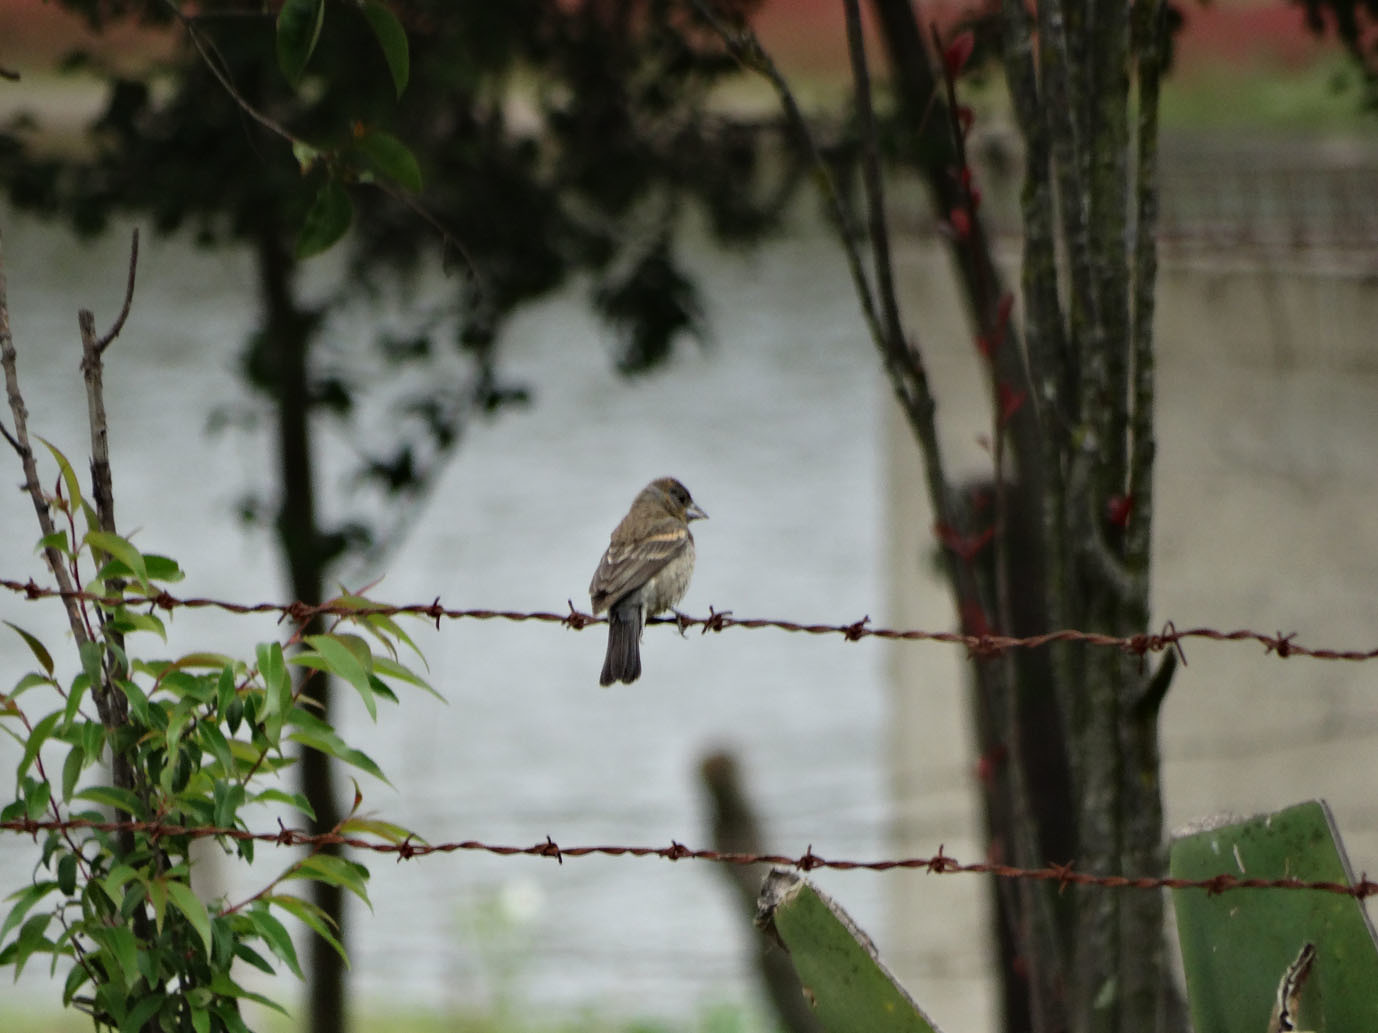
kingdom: Animalia
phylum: Chordata
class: Aves
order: Passeriformes
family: Cardinalidae
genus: Passerina
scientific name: Passerina caerulea
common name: Blue grosbeak
